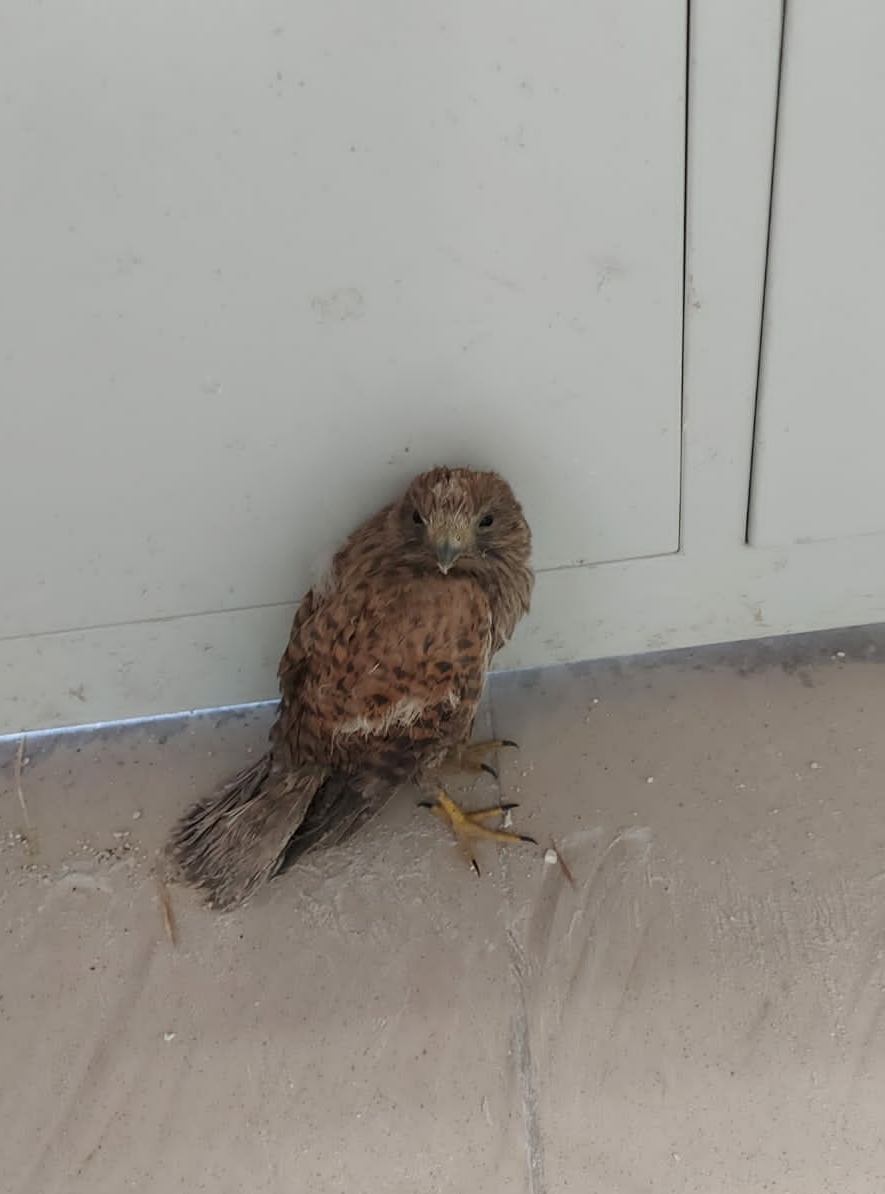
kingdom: Animalia
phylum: Chordata
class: Aves
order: Falconiformes
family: Falconidae
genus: Falco
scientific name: Falco tinnunculus
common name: Common kestrel
